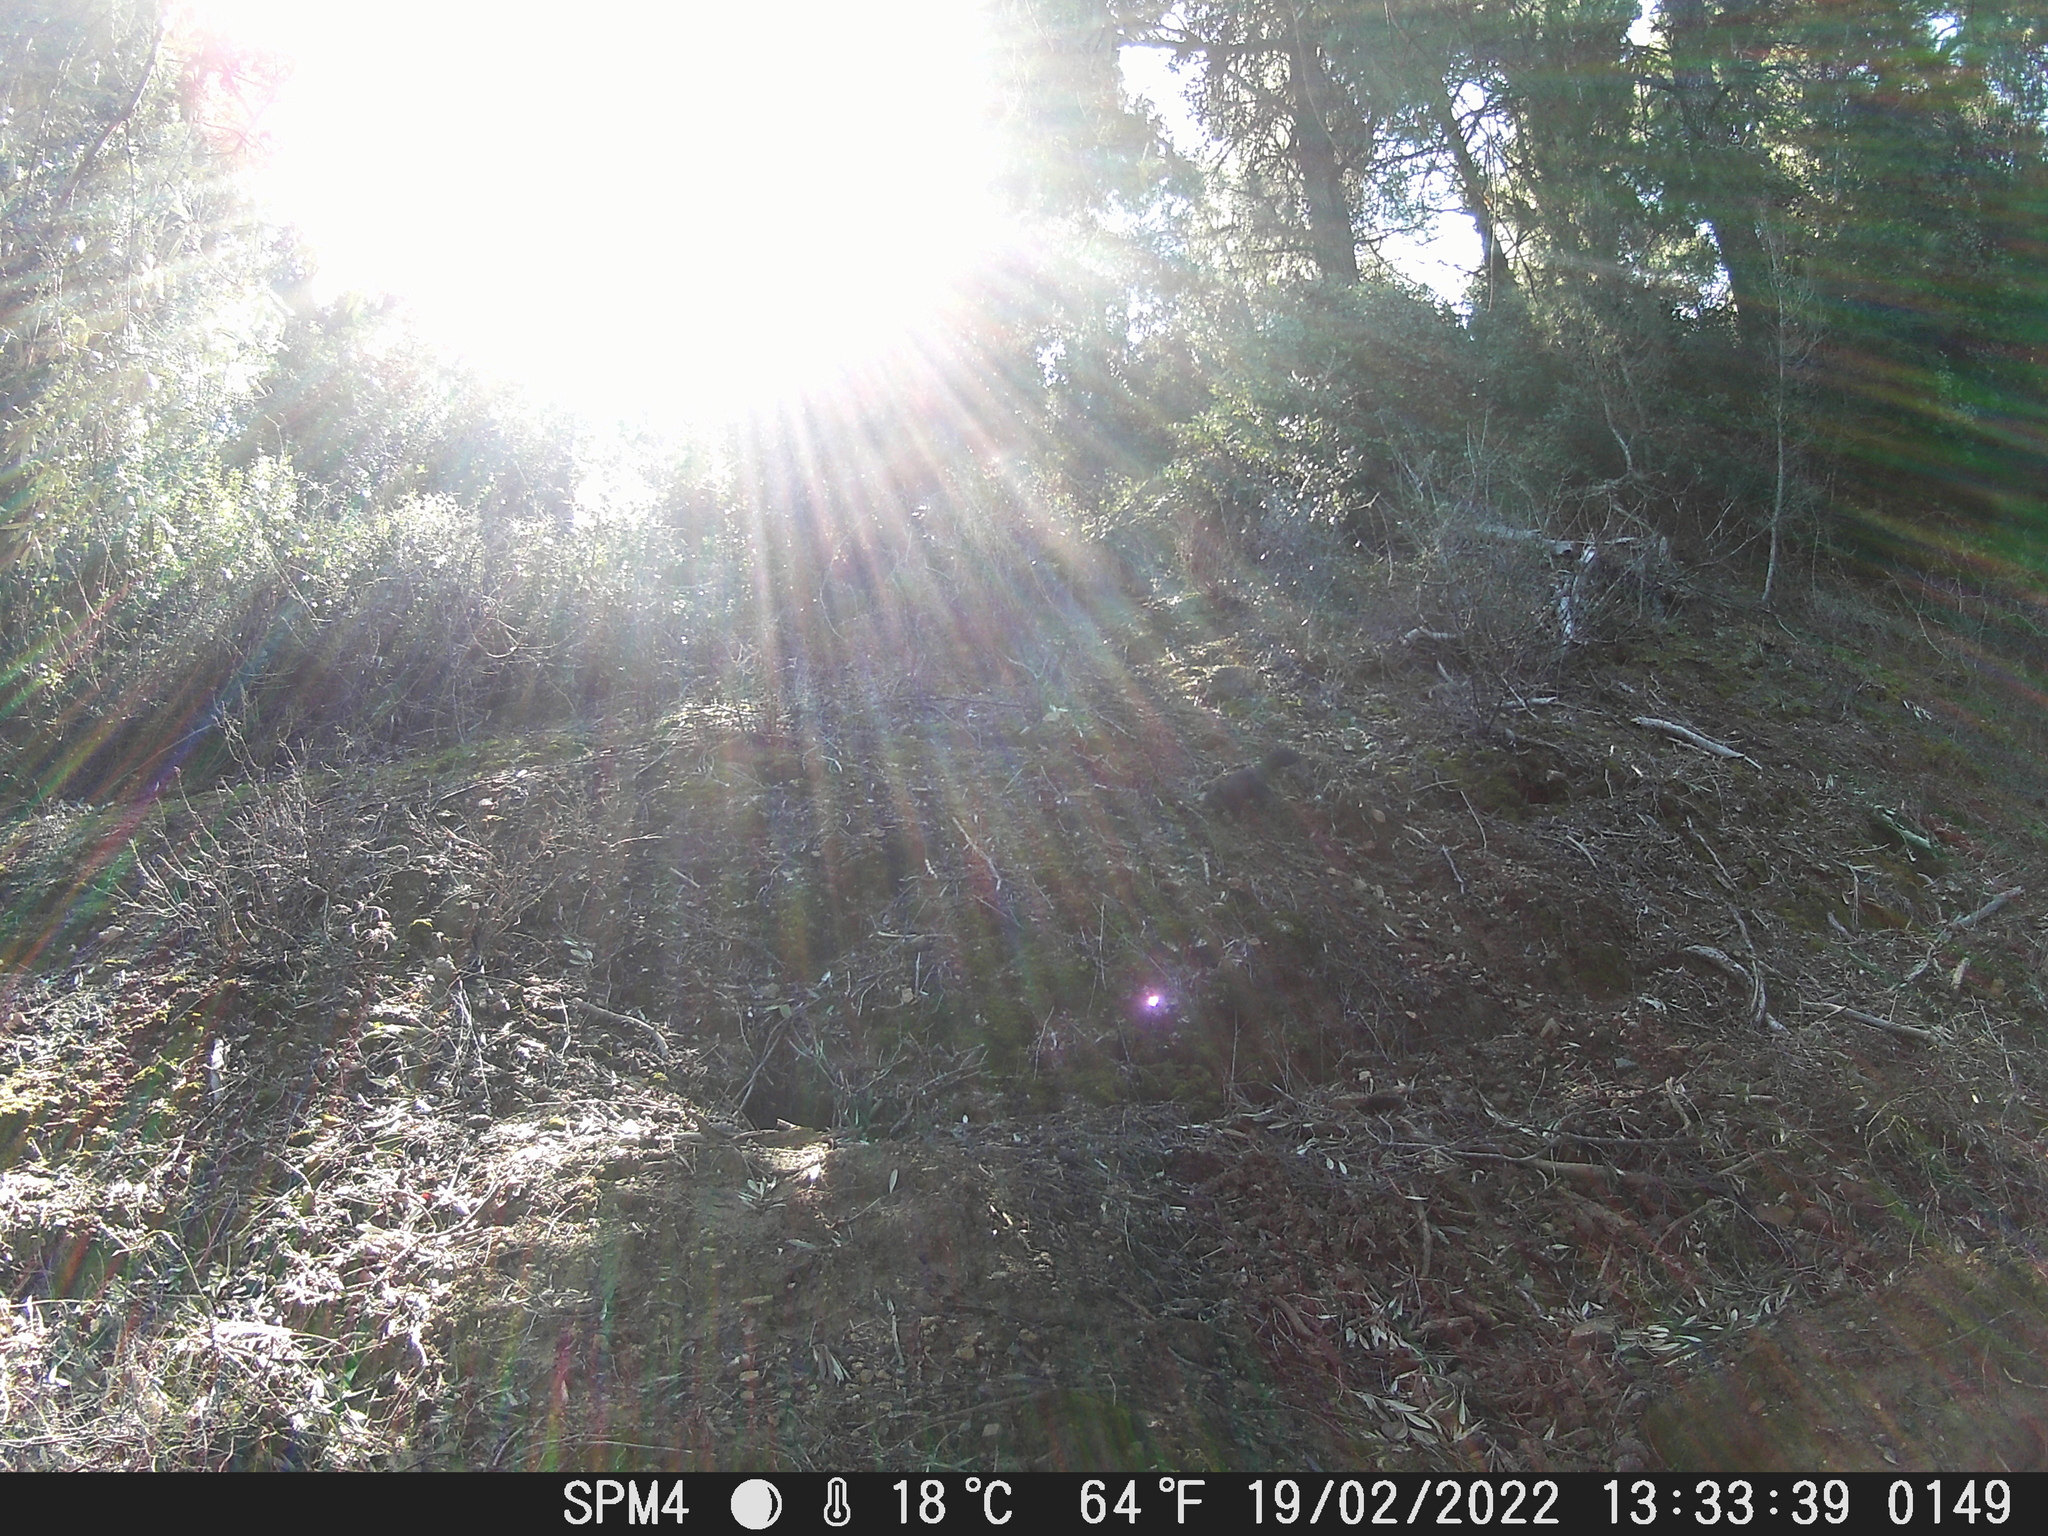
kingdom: Animalia
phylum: Chordata
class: Mammalia
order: Rodentia
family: Sciuridae
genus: Sciurus
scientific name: Sciurus vulgaris
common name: Eurasian red squirrel
